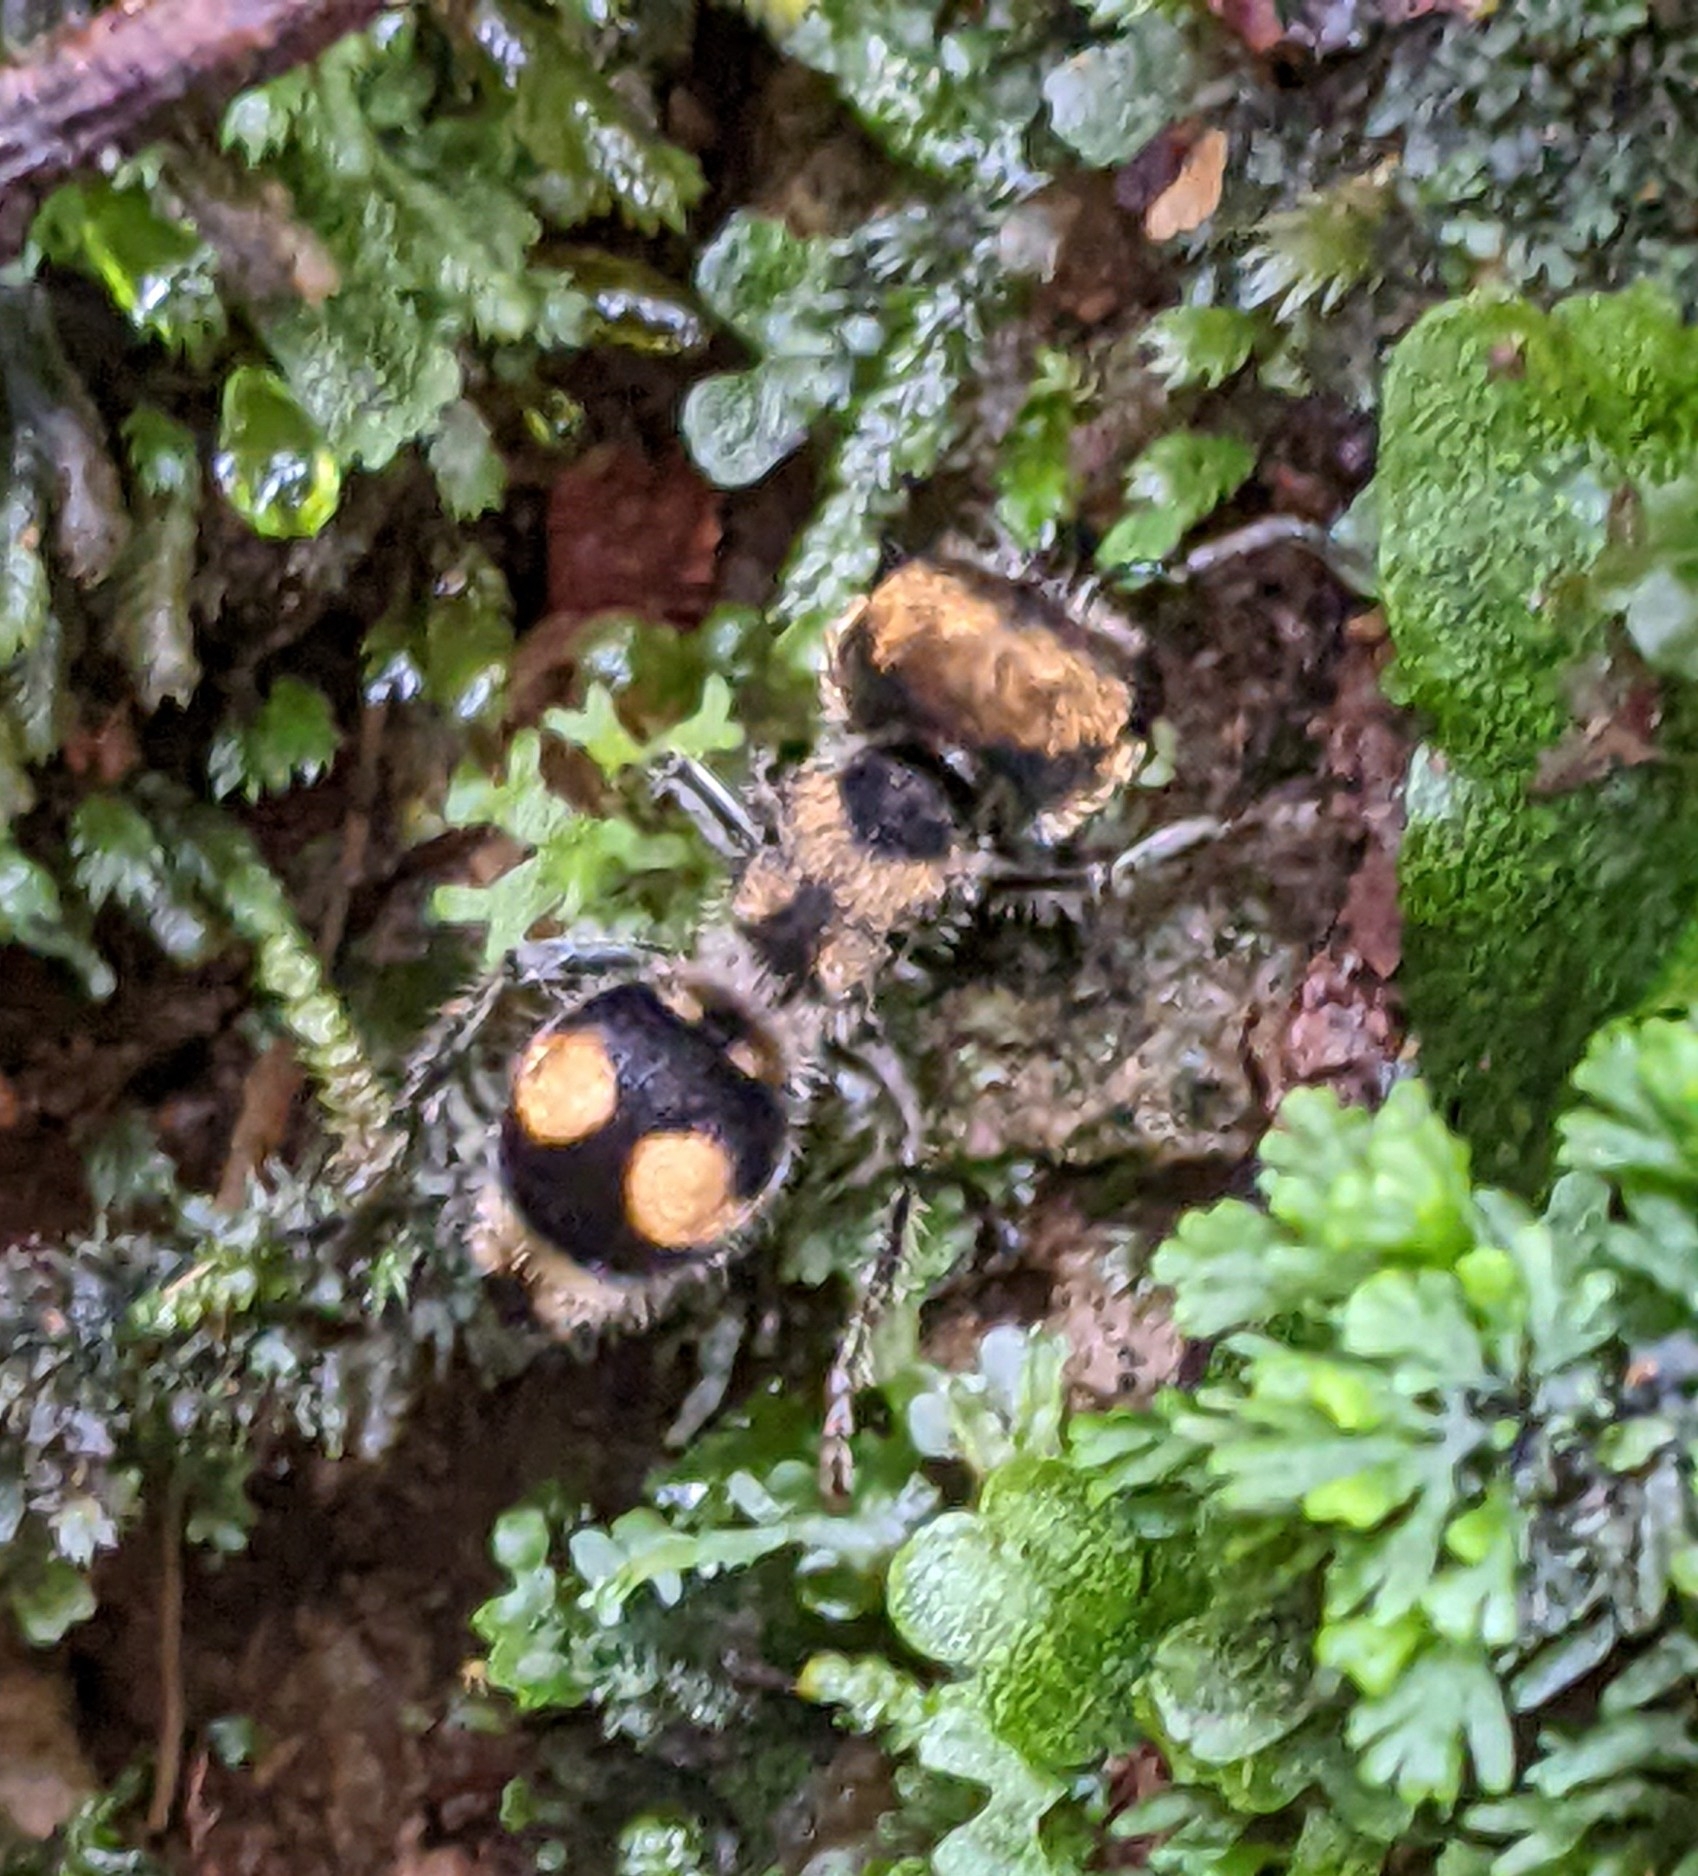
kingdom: Animalia
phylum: Arthropoda
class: Insecta
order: Hymenoptera
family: Mutillidae
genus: Hoplognathoca
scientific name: Hoplognathoca
